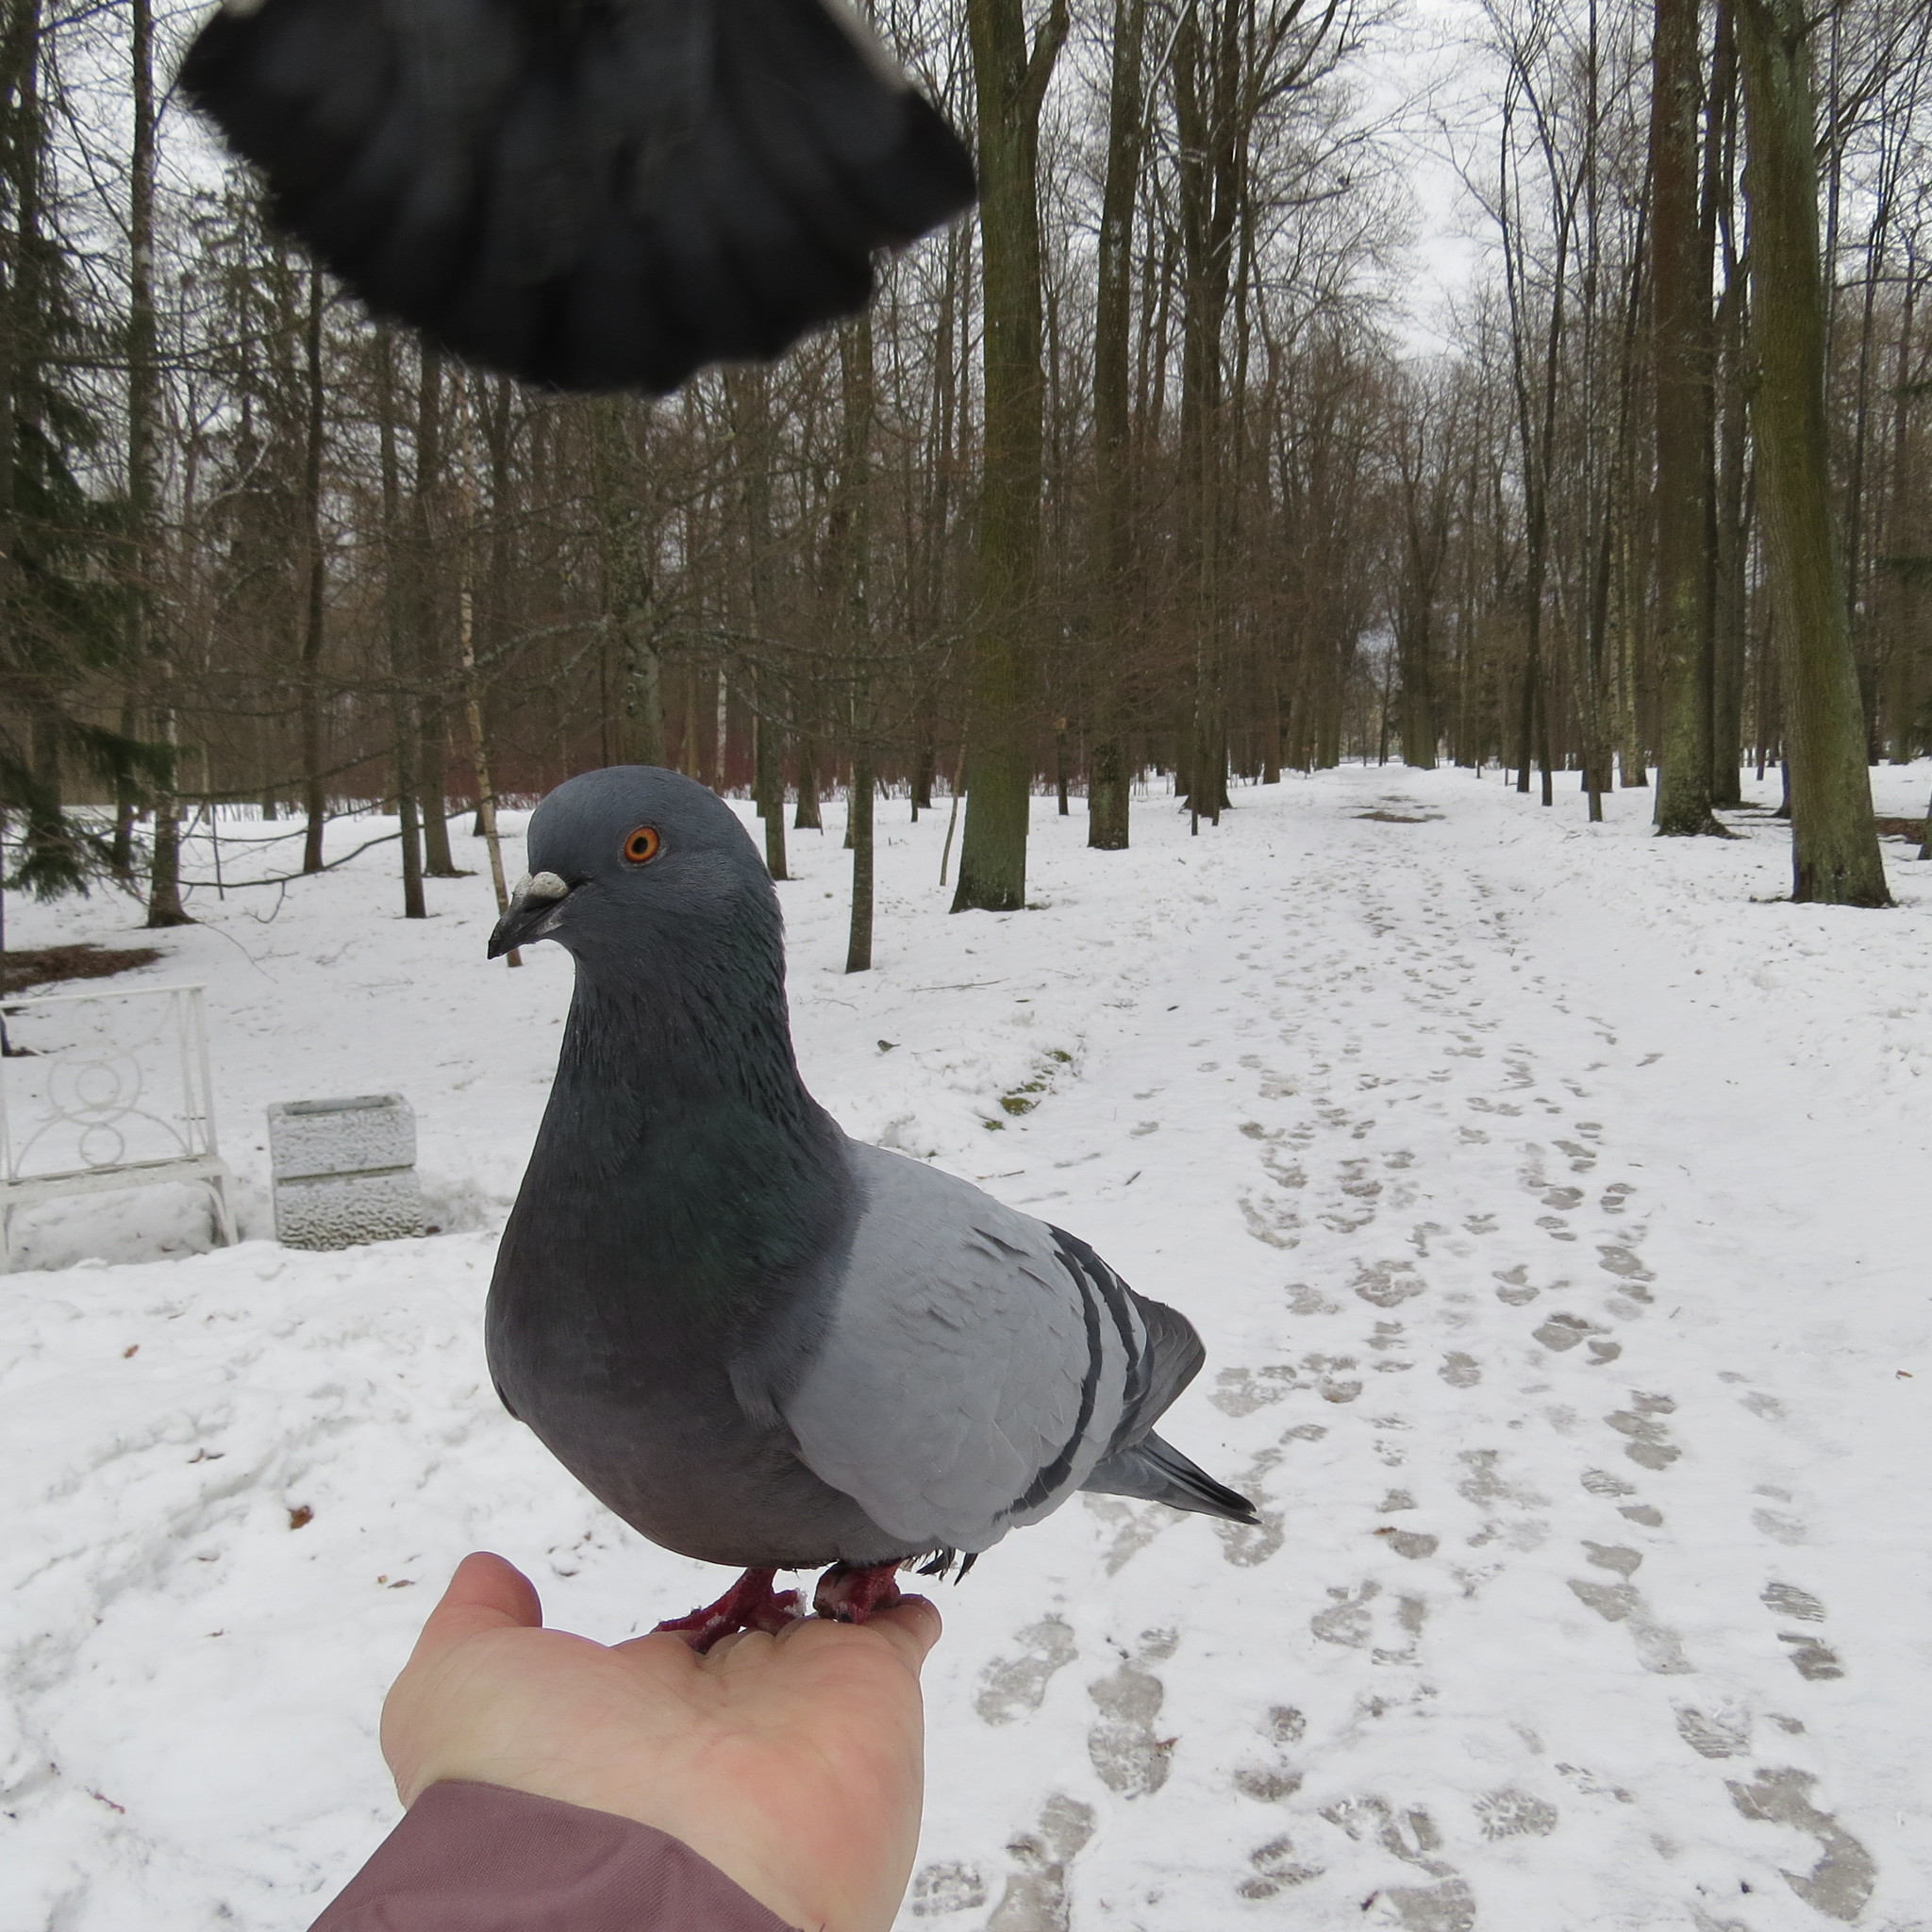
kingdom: Animalia
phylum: Chordata
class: Aves
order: Columbiformes
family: Columbidae
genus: Columba
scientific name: Columba livia
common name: Rock pigeon
